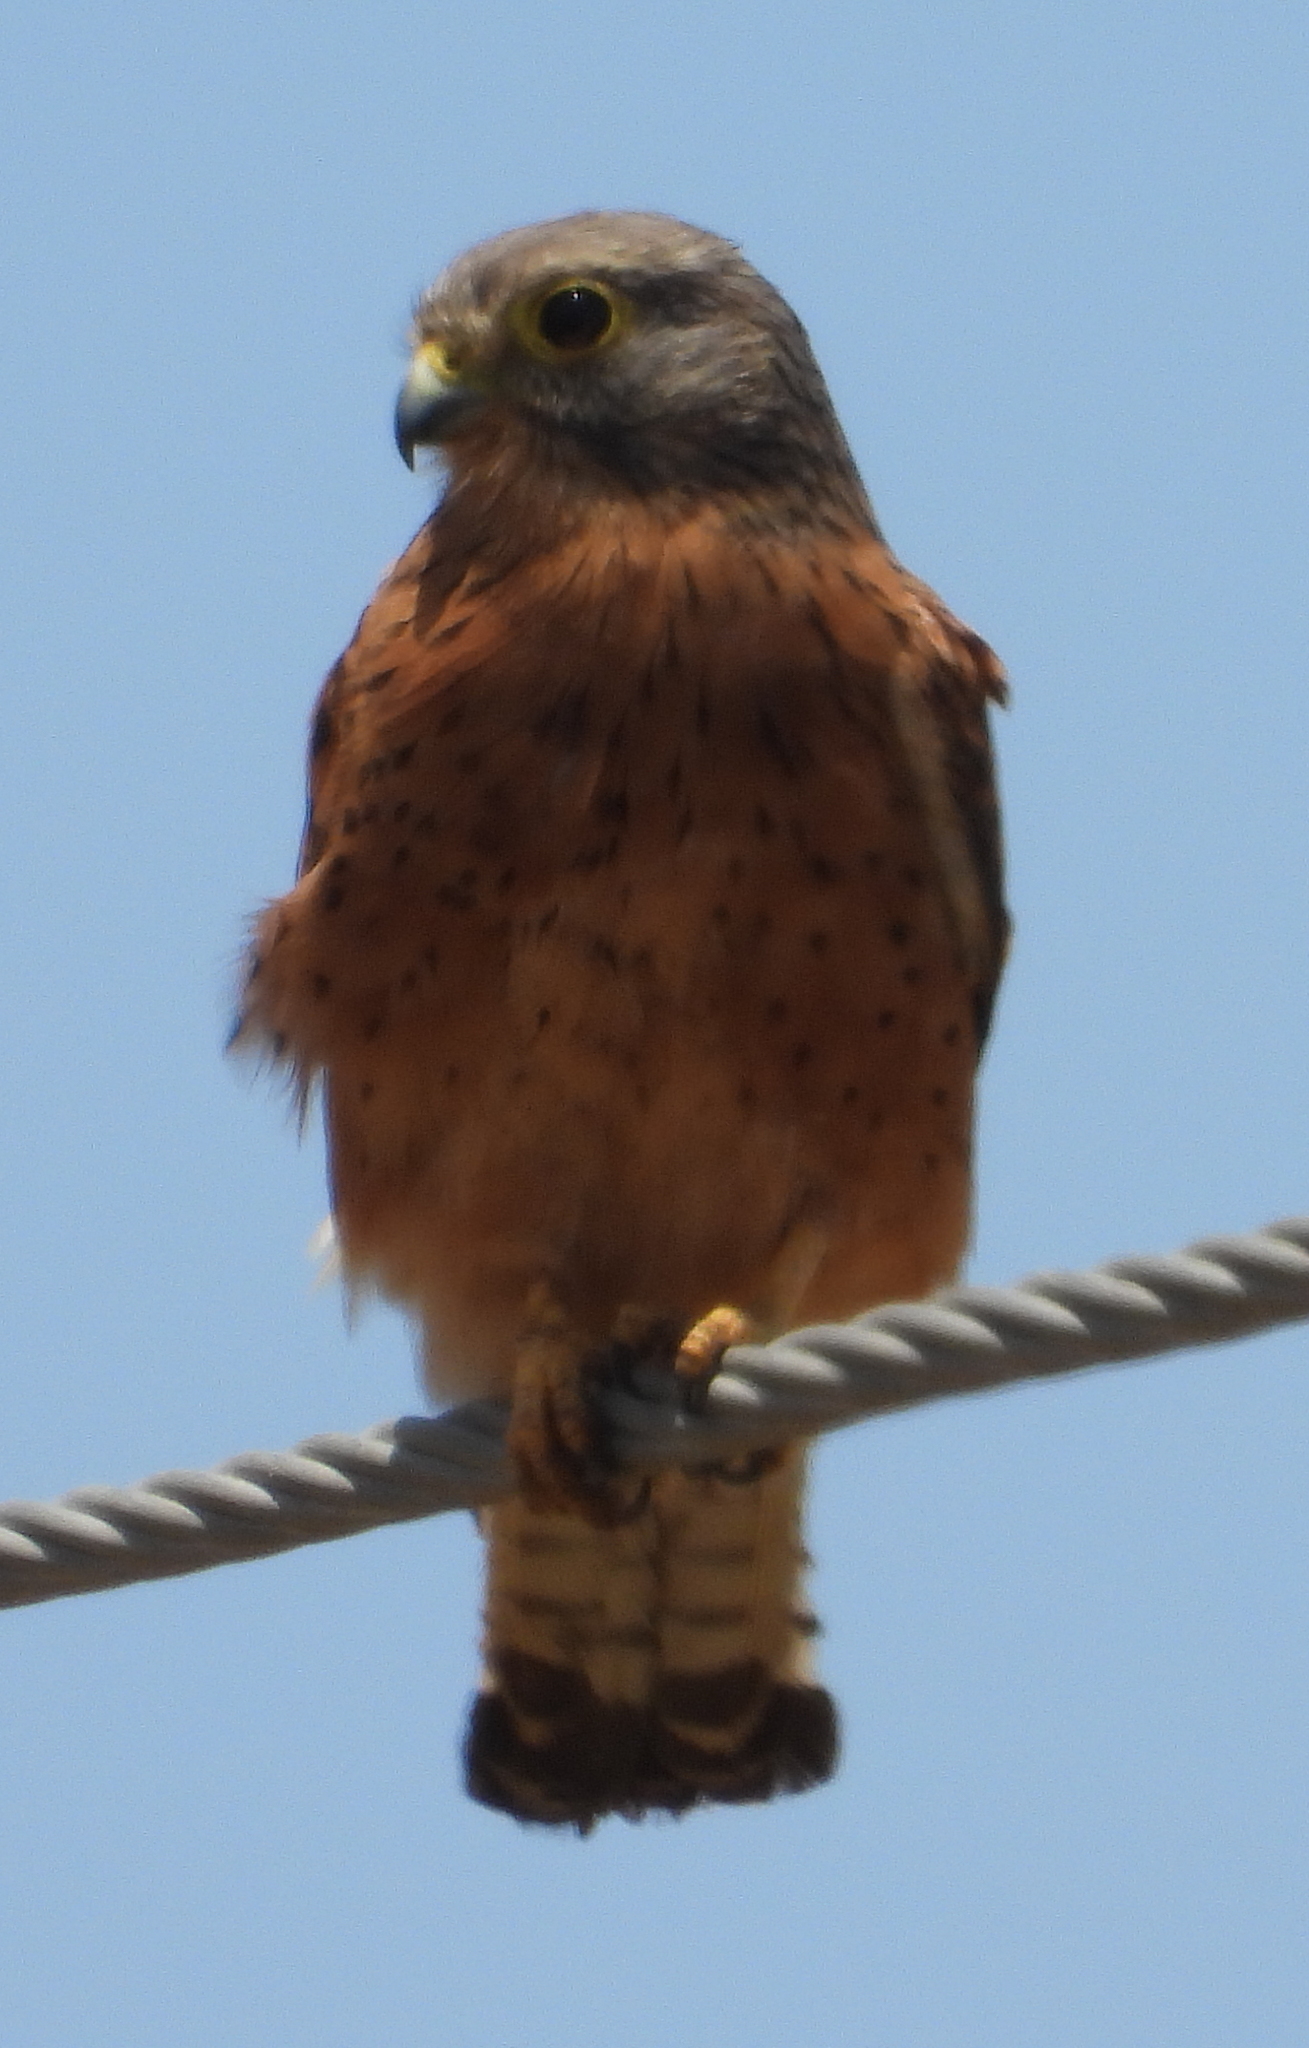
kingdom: Animalia
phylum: Chordata
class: Aves
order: Falconiformes
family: Falconidae
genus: Falco
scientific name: Falco rupicolus
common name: Rock kestrel
